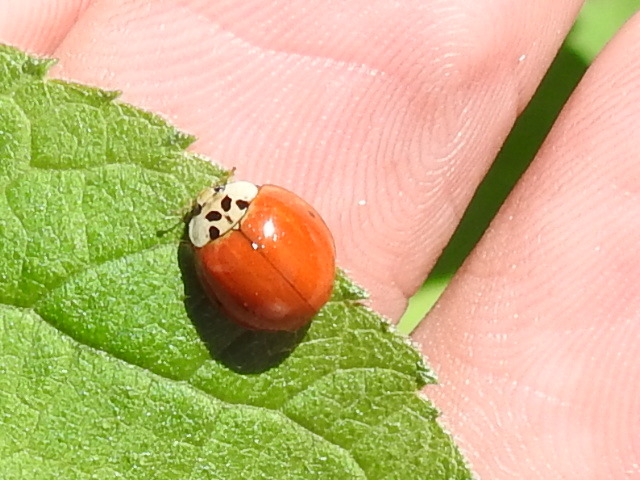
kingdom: Animalia
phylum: Arthropoda
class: Insecta
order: Coleoptera
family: Coccinellidae
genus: Harmonia
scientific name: Harmonia axyridis
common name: Harlequin ladybird
